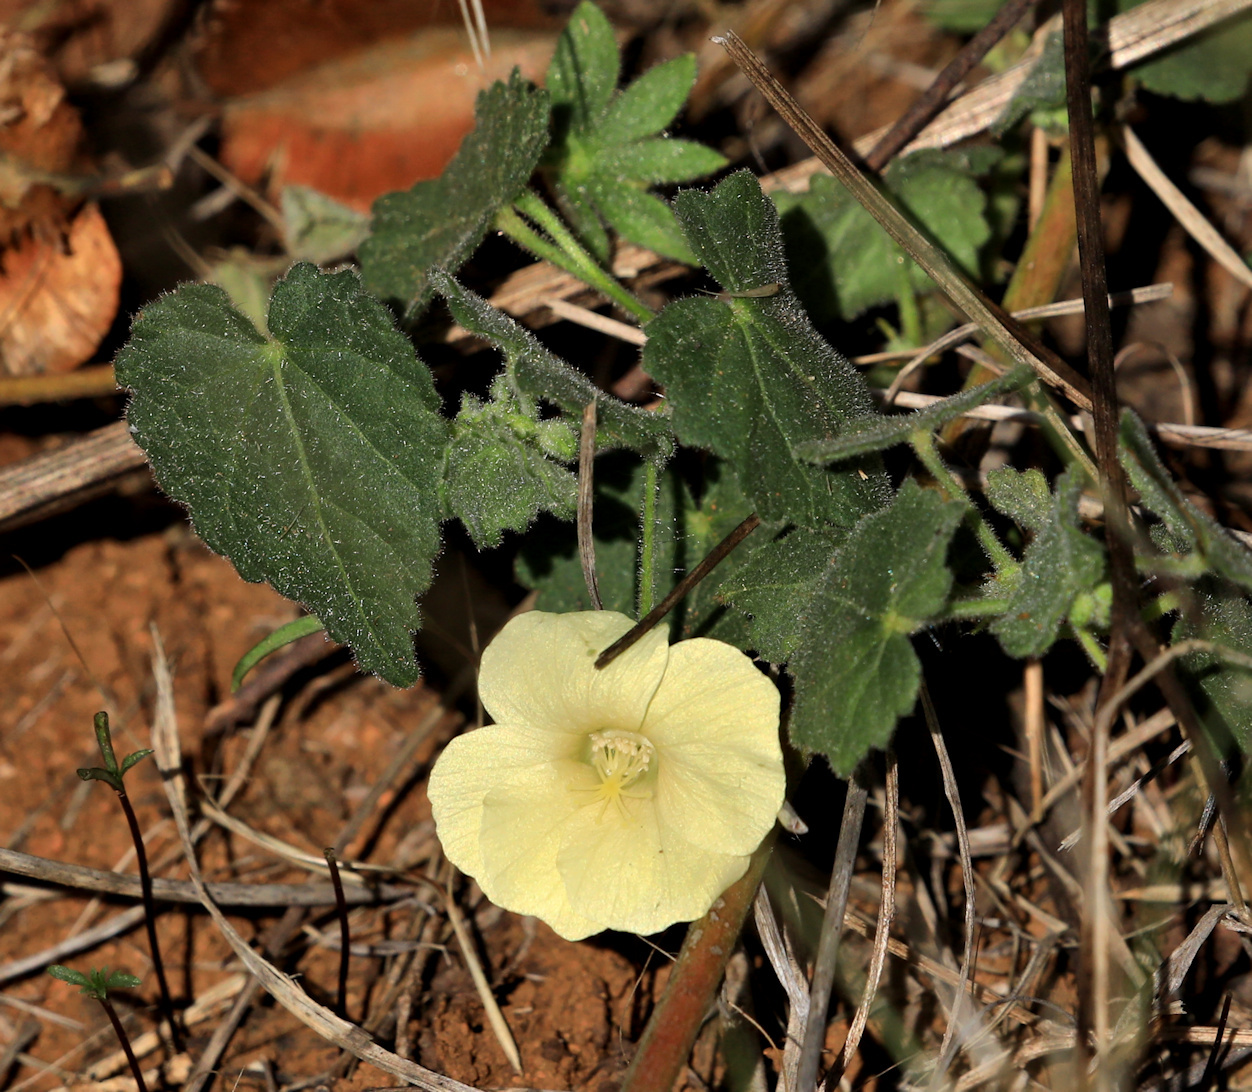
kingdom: Plantae
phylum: Tracheophyta
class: Magnoliopsida
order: Malvales
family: Malvaceae
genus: Pavonia
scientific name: Pavonia burchellii
